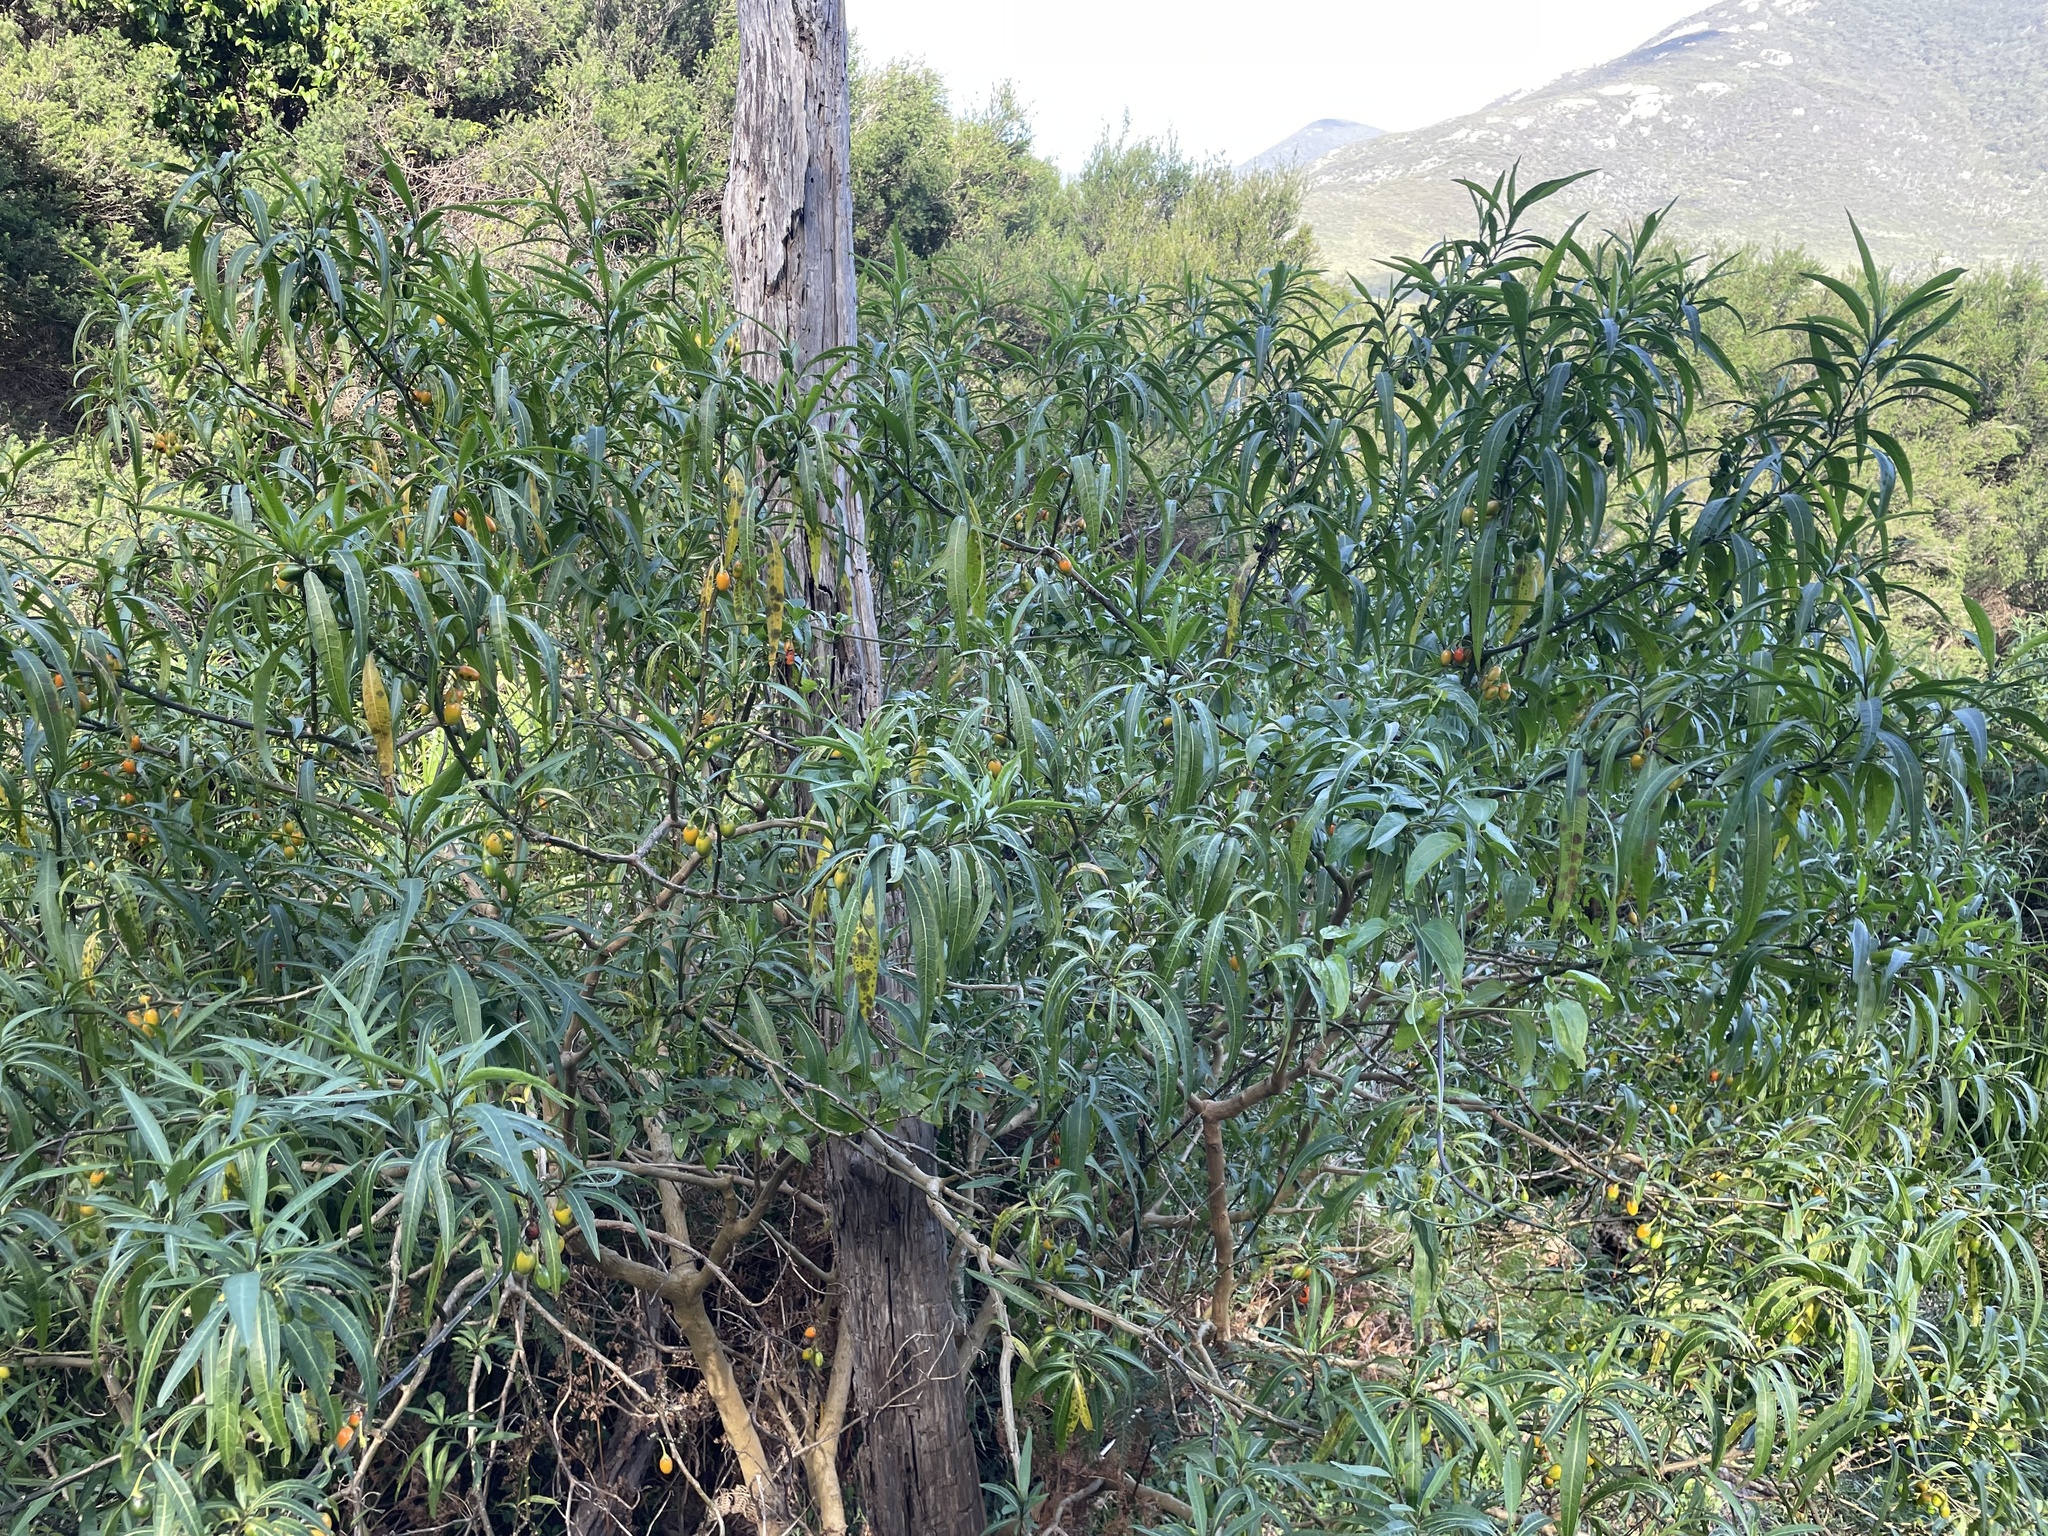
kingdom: Plantae
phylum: Tracheophyta
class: Magnoliopsida
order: Solanales
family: Solanaceae
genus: Solanum
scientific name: Solanum laciniatum
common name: Kangaroo-apple
